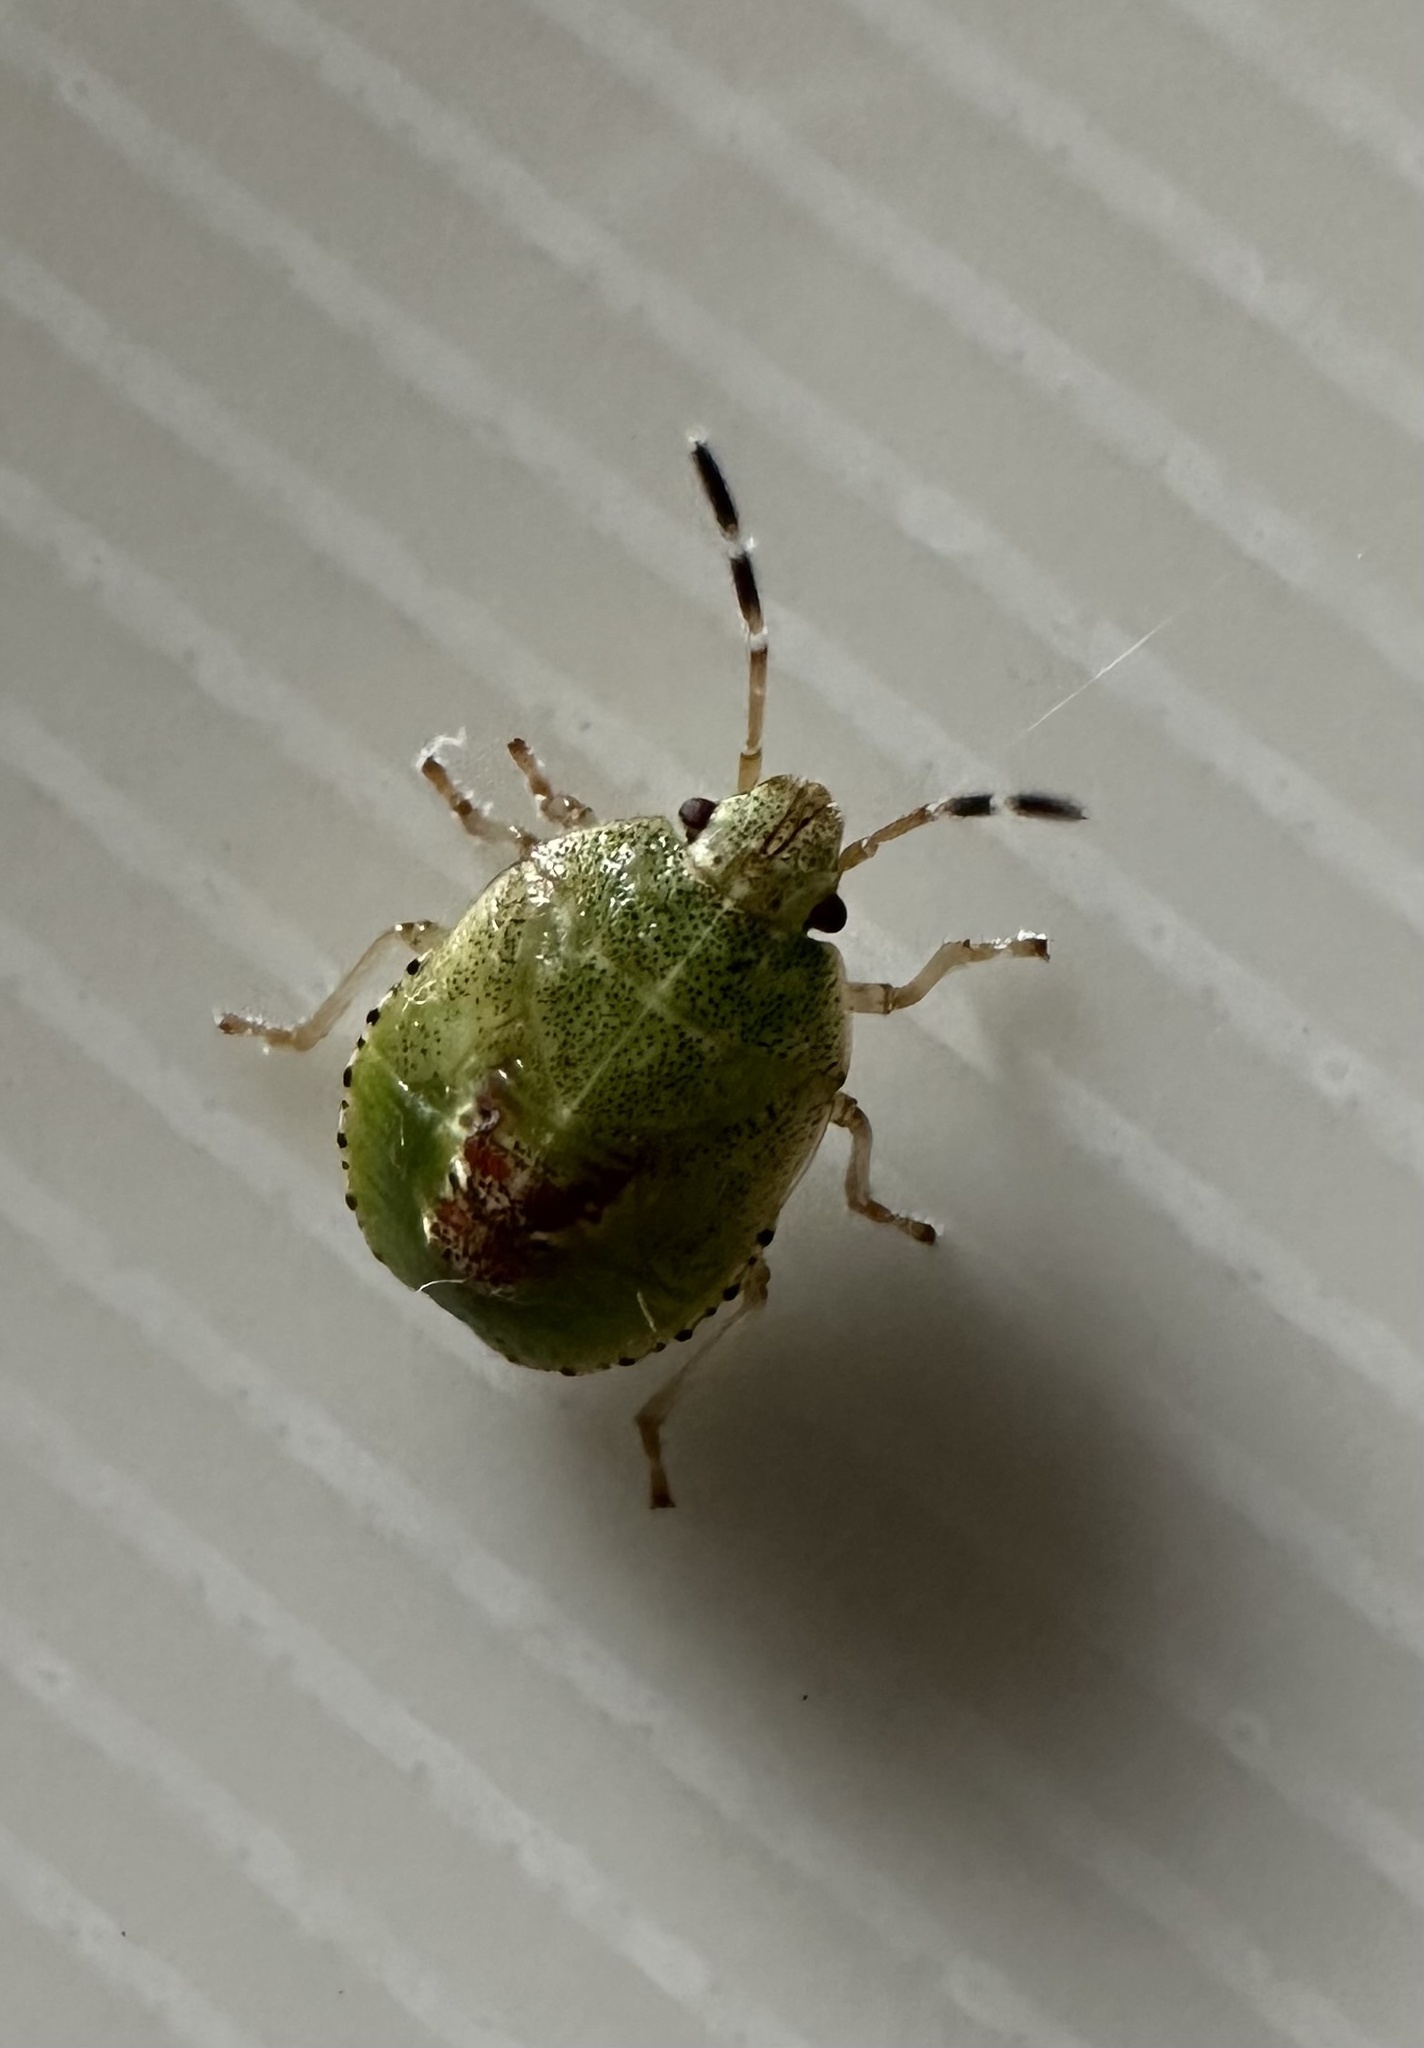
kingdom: Animalia
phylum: Arthropoda
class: Insecta
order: Hemiptera
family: Acanthosomatidae
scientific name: Acanthosomatidae
